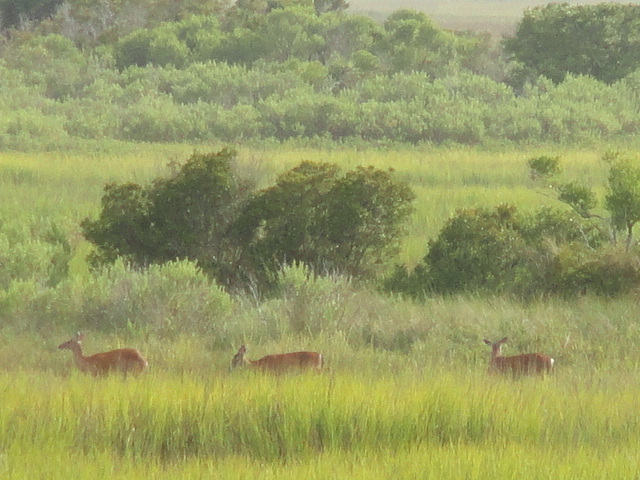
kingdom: Animalia
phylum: Chordata
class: Mammalia
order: Artiodactyla
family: Cervidae
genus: Odocoileus
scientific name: Odocoileus virginianus
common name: White-tailed deer
